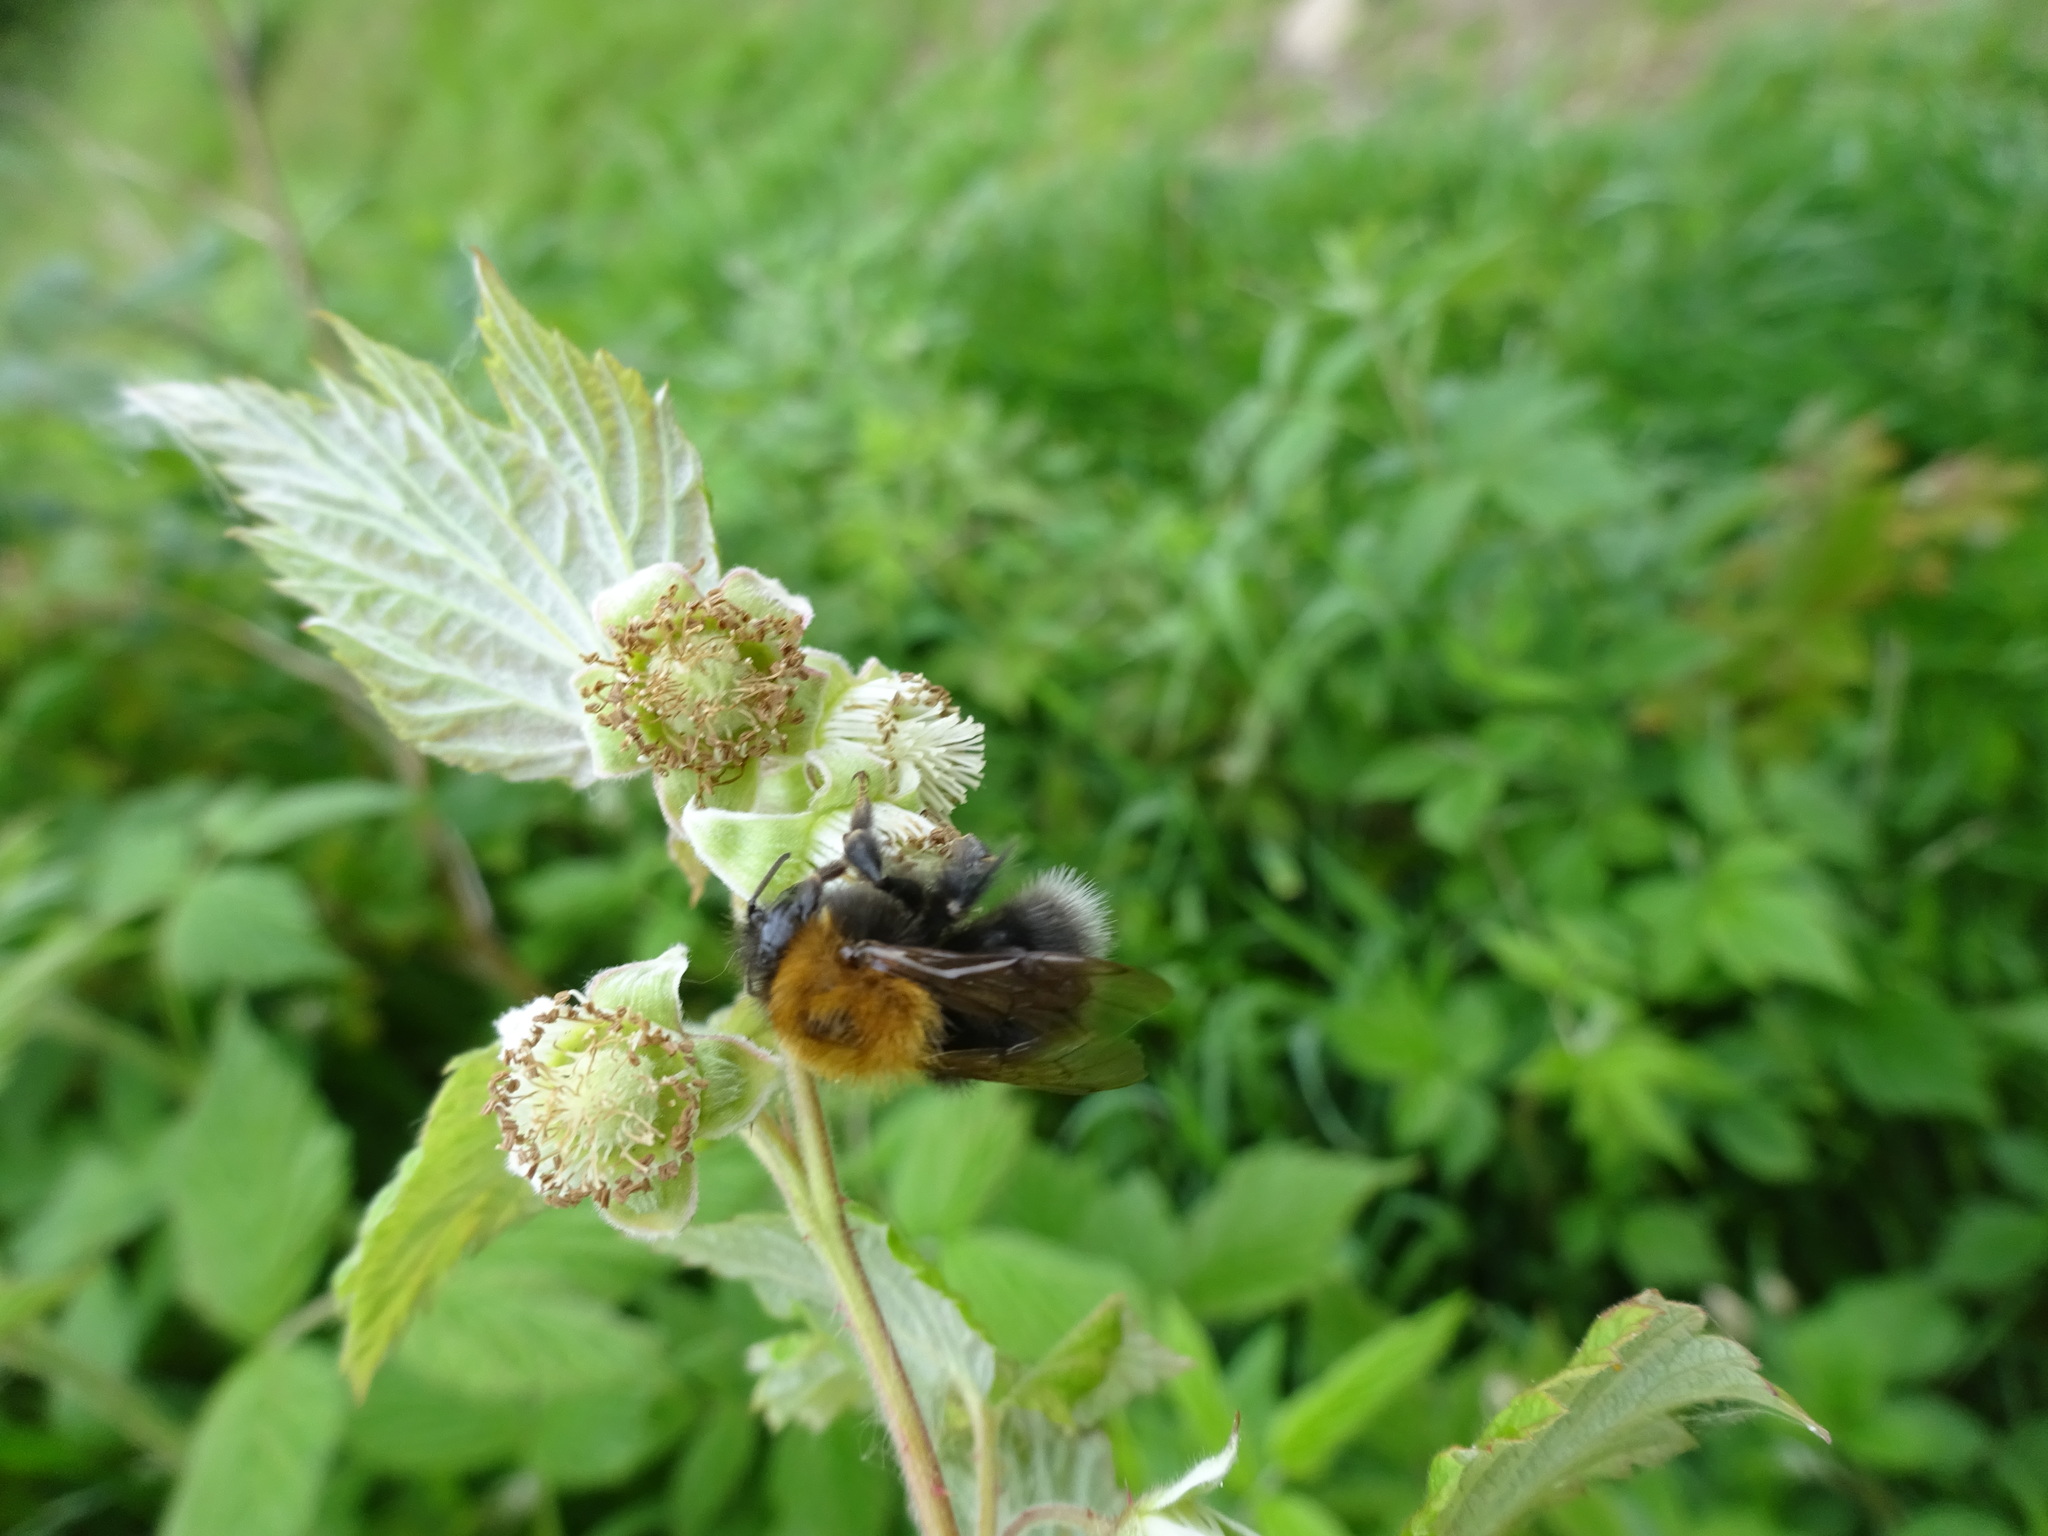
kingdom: Animalia
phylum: Arthropoda
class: Insecta
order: Hymenoptera
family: Apidae
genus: Bombus
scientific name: Bombus hypnorum
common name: New garden bumblebee
